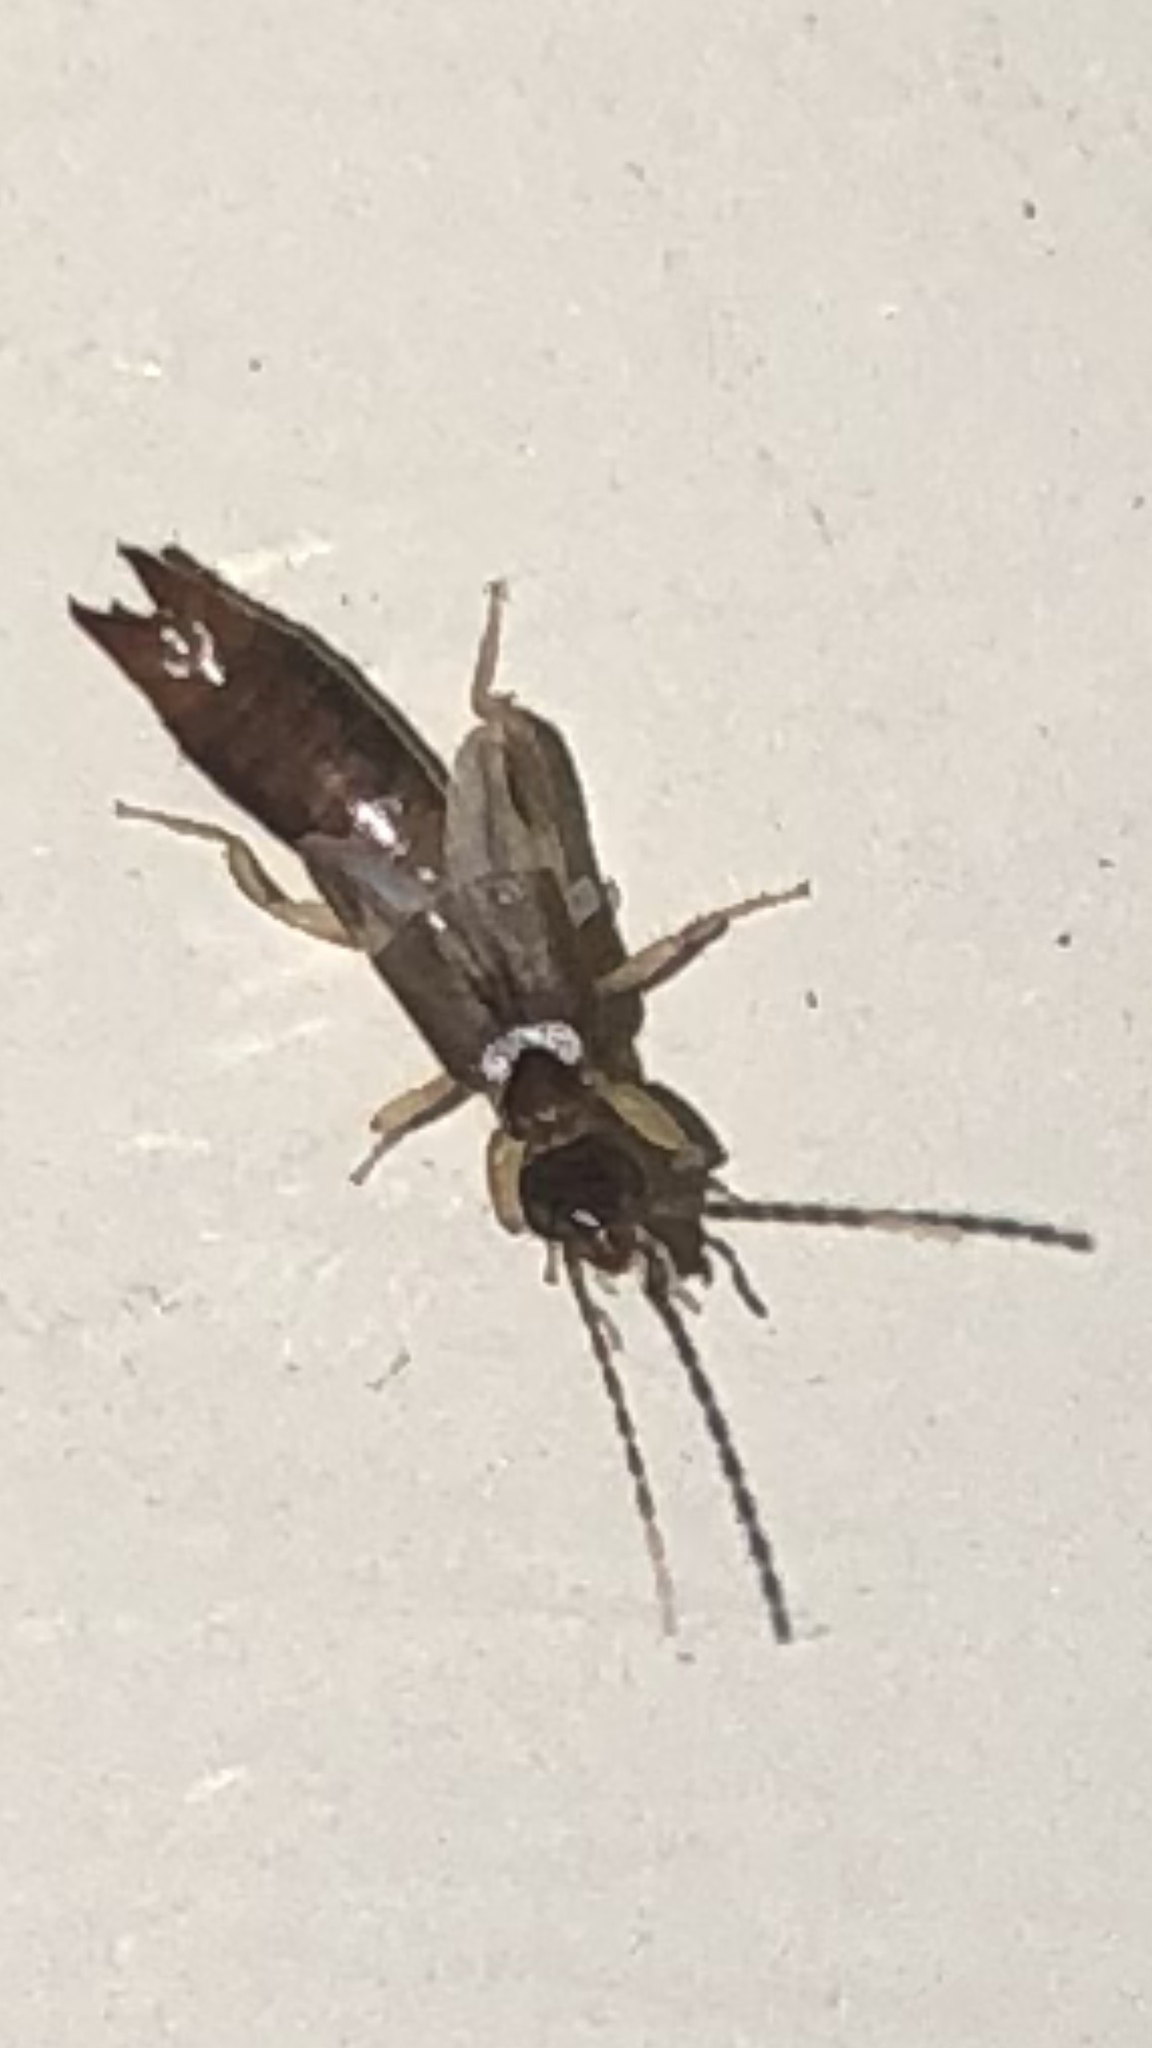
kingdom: Animalia
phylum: Arthropoda
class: Insecta
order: Dermaptera
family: Spongiphoridae
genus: Labia
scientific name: Labia minor
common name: Lesser earwig
